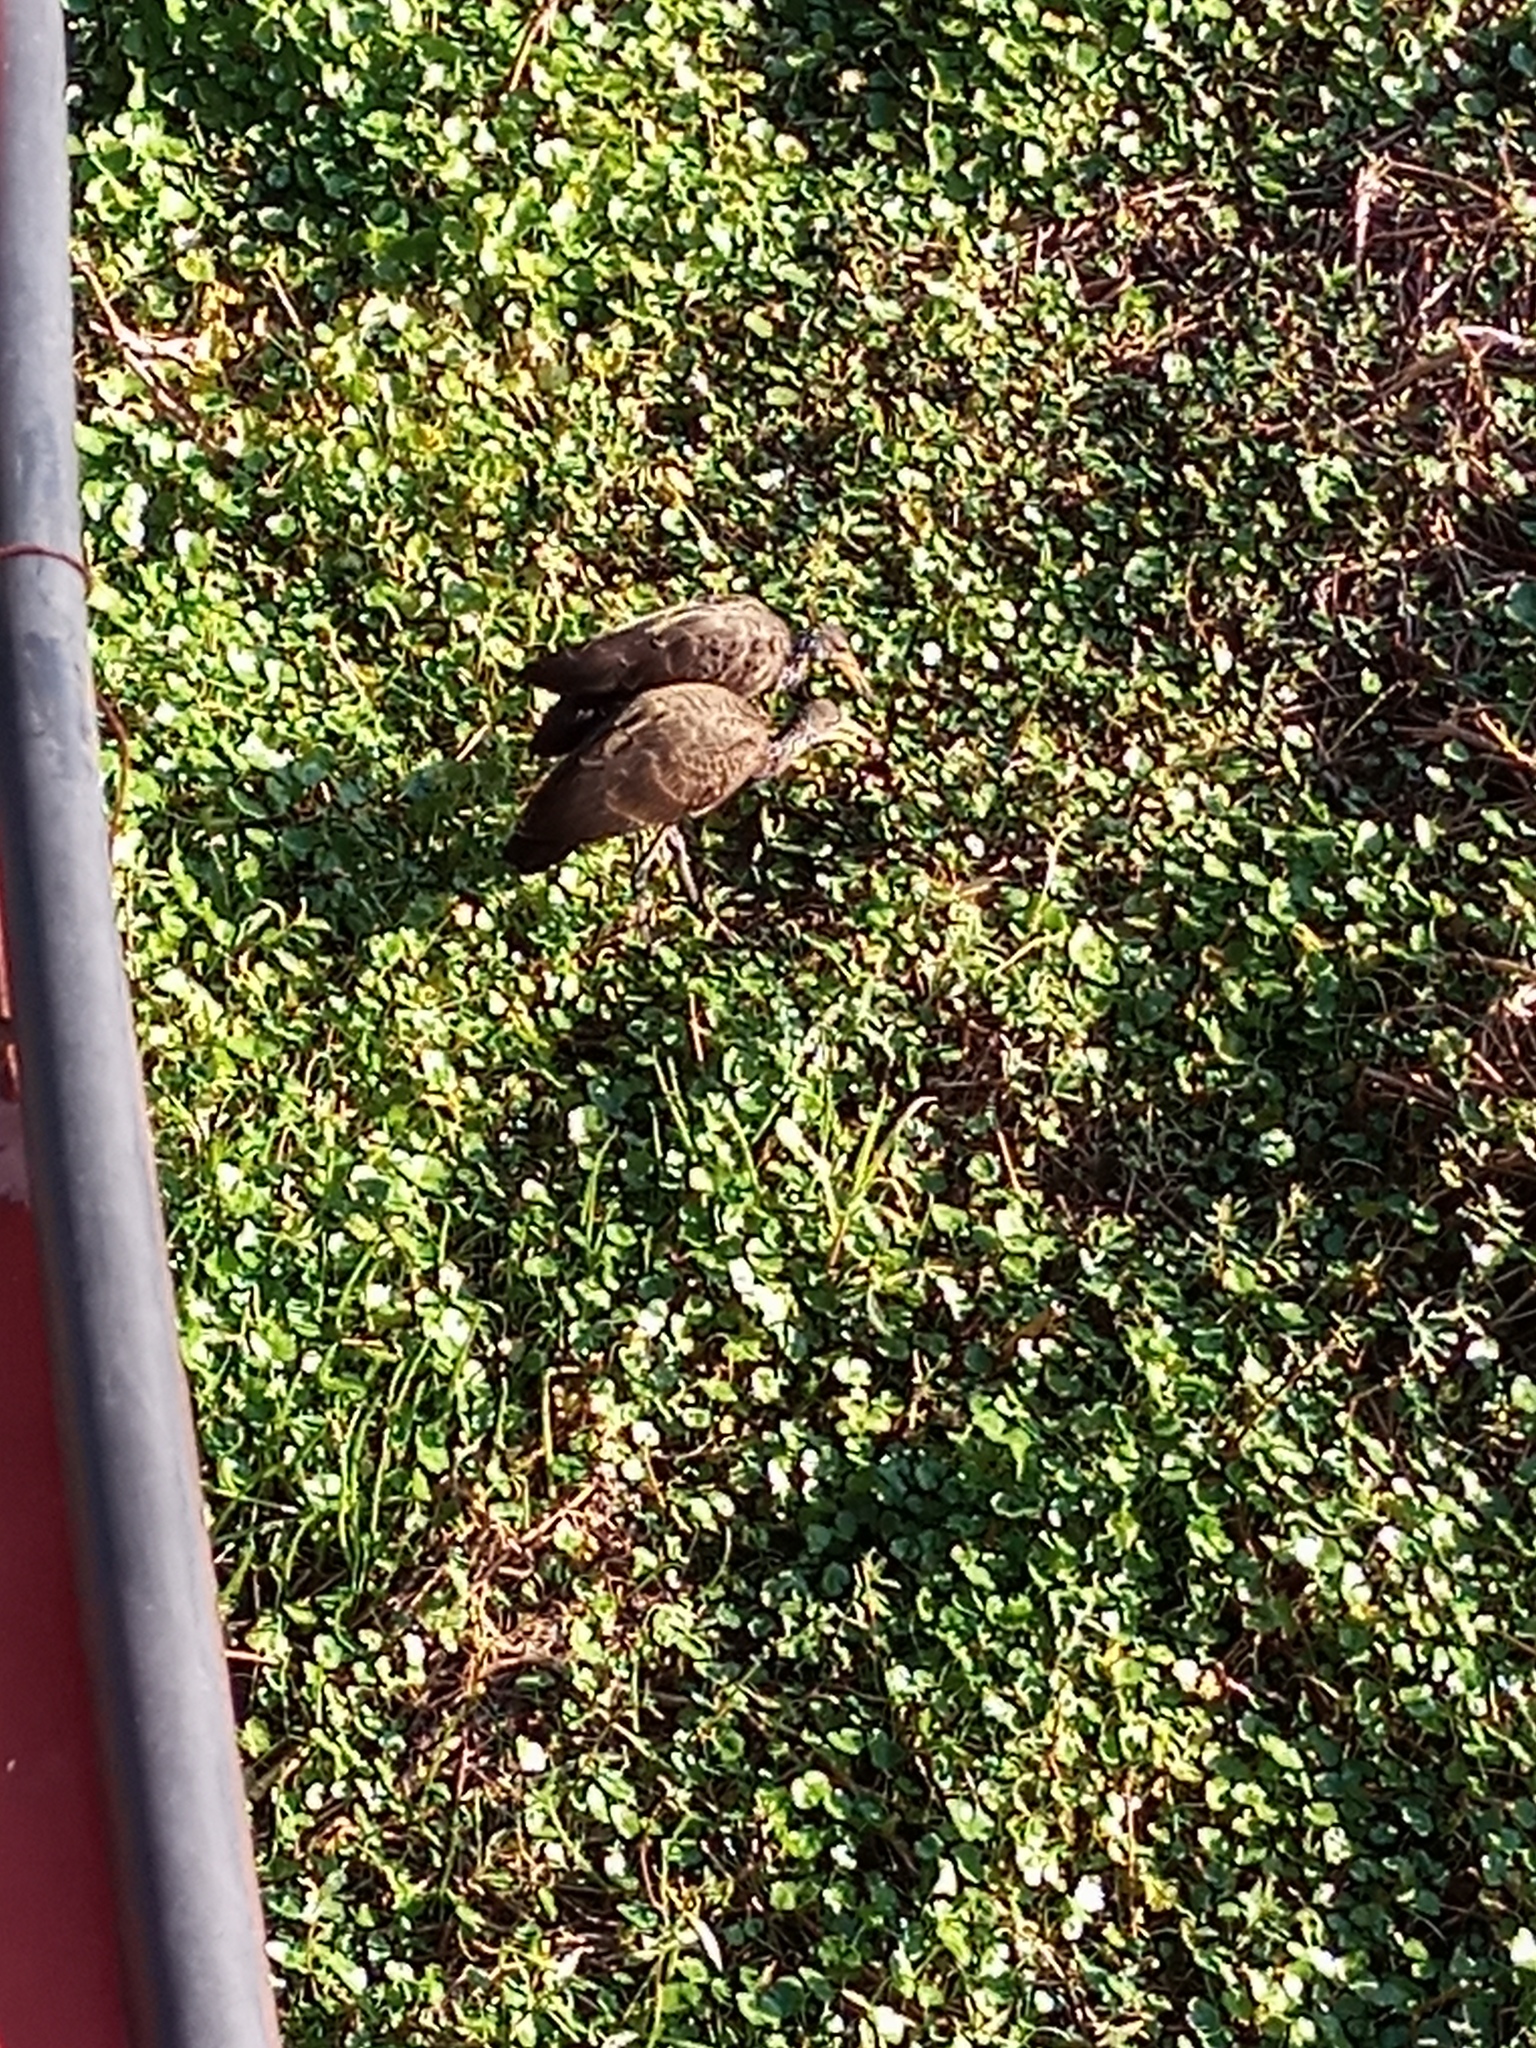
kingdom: Animalia
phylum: Chordata
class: Aves
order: Gruiformes
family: Aramidae
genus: Aramus
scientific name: Aramus guarauna
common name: Limpkin
